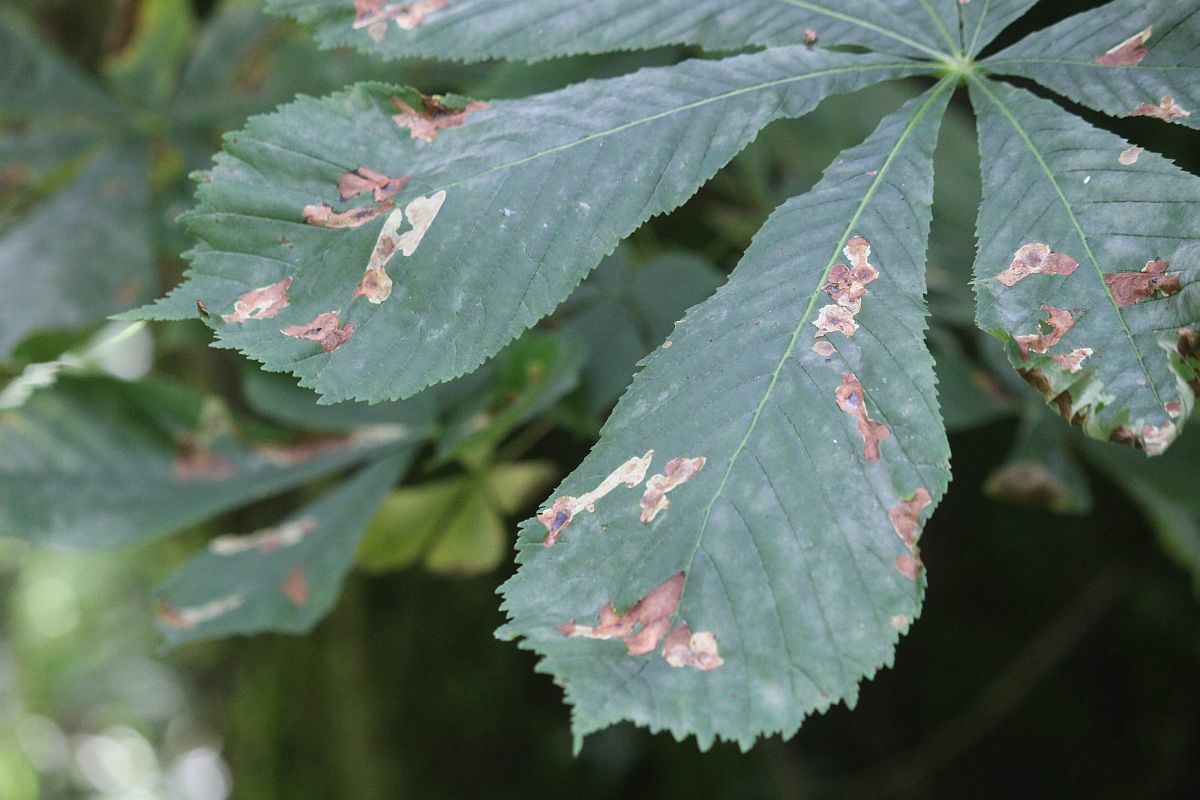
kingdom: Animalia
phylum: Arthropoda
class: Insecta
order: Lepidoptera
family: Gracillariidae
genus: Cameraria
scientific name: Cameraria ohridella
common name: Horse-chestnut leaf-miner
